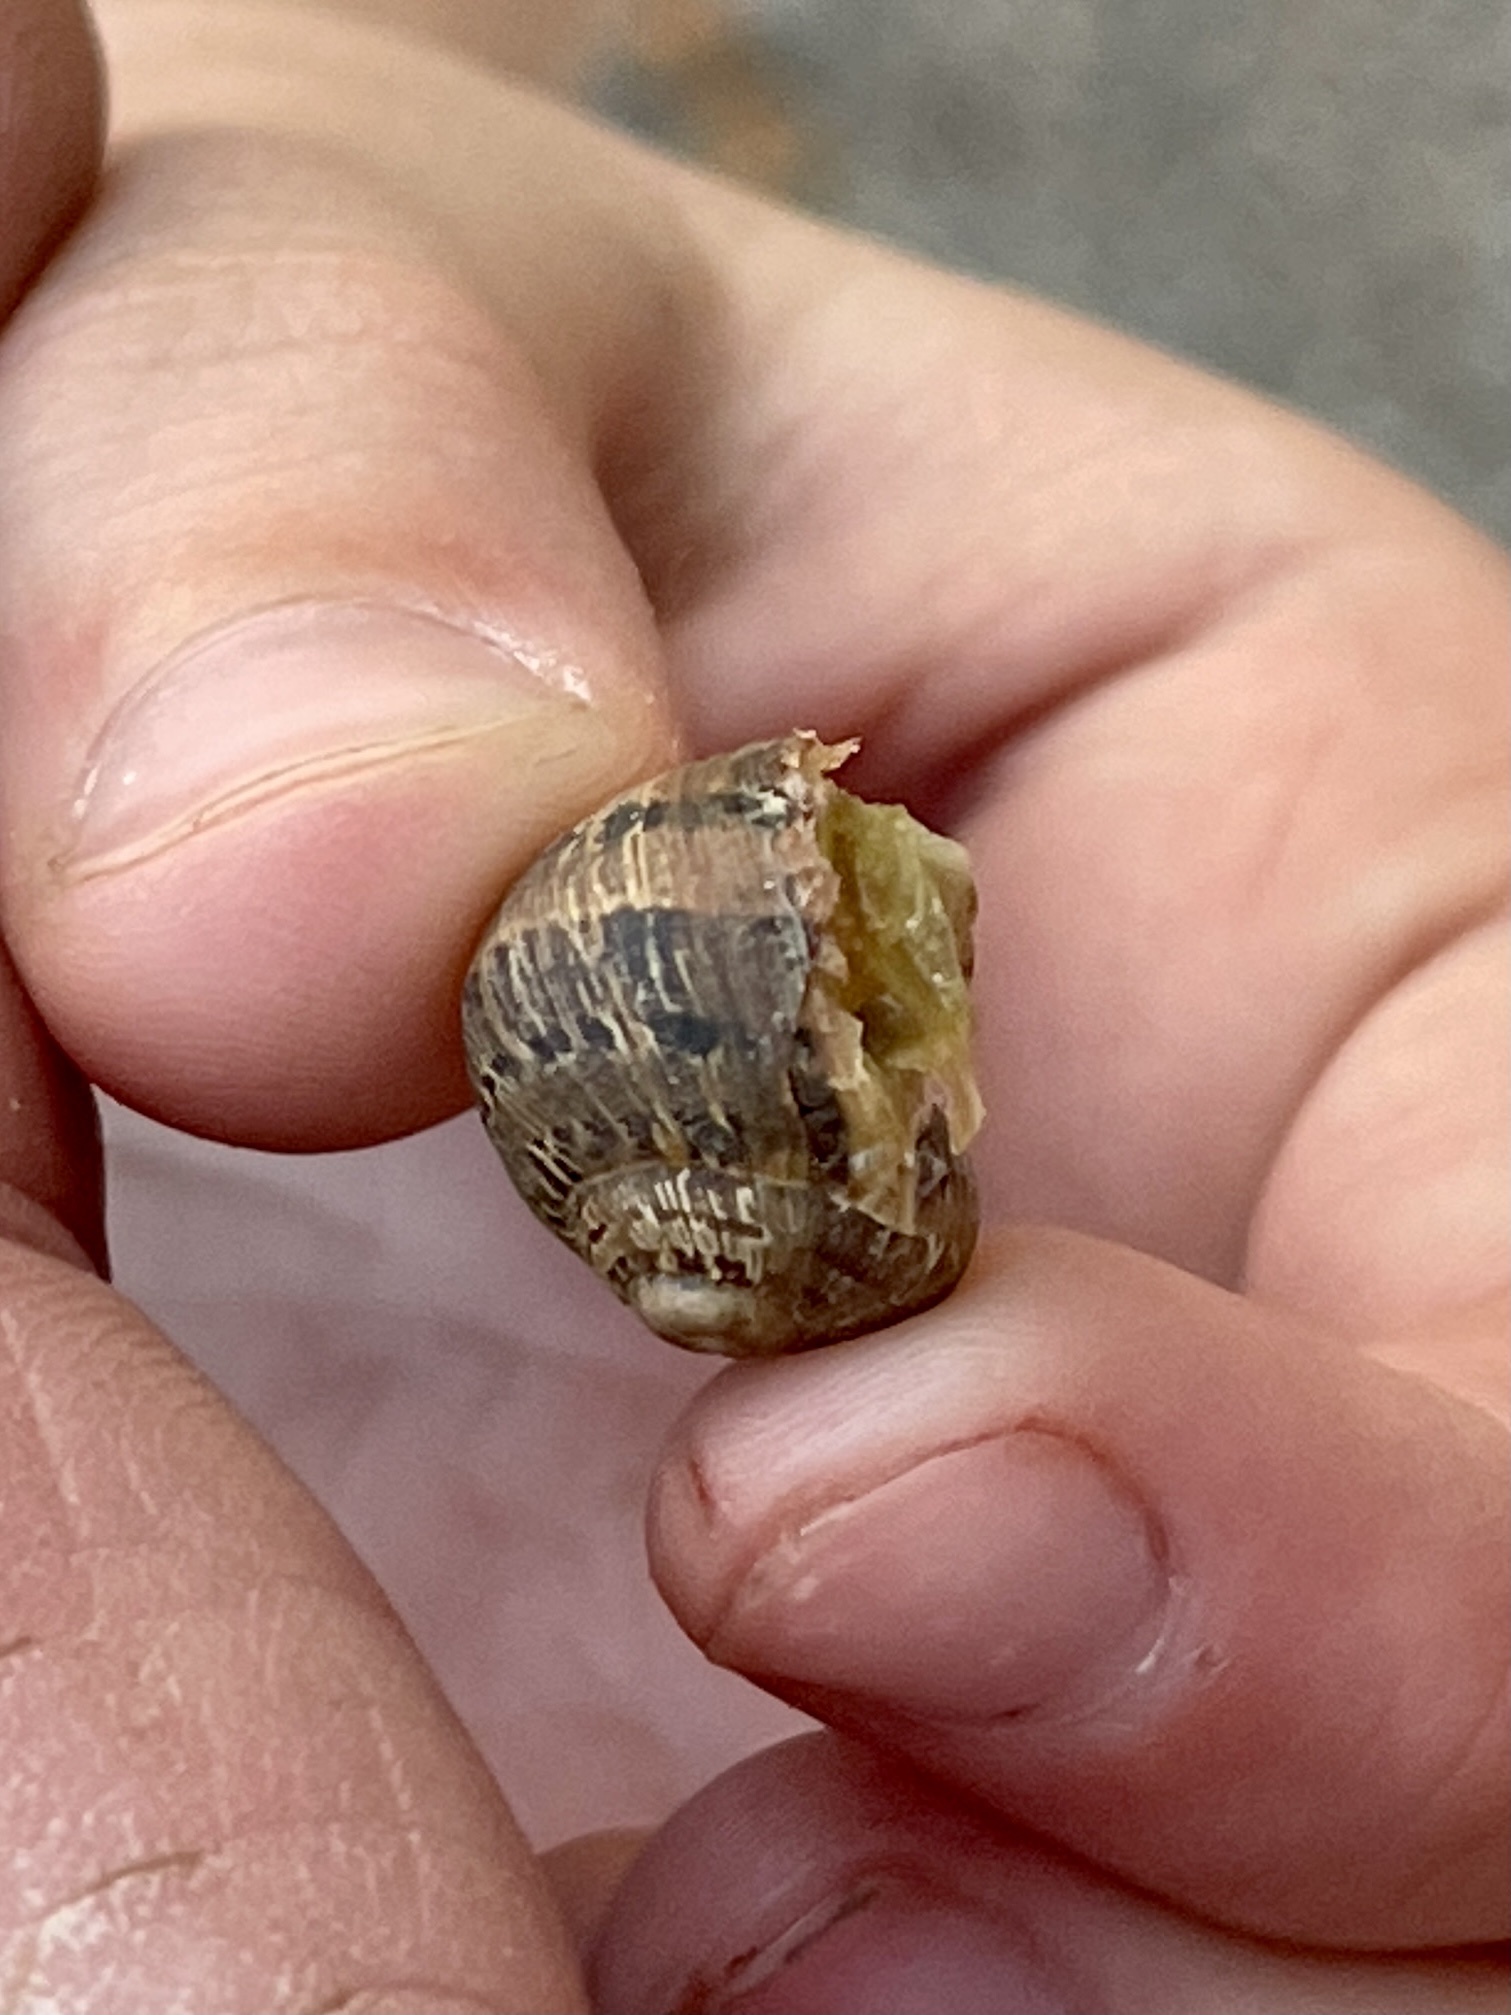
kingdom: Animalia
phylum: Mollusca
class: Gastropoda
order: Stylommatophora
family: Helicidae
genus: Cornu
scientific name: Cornu aspersum
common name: Brown garden snail
